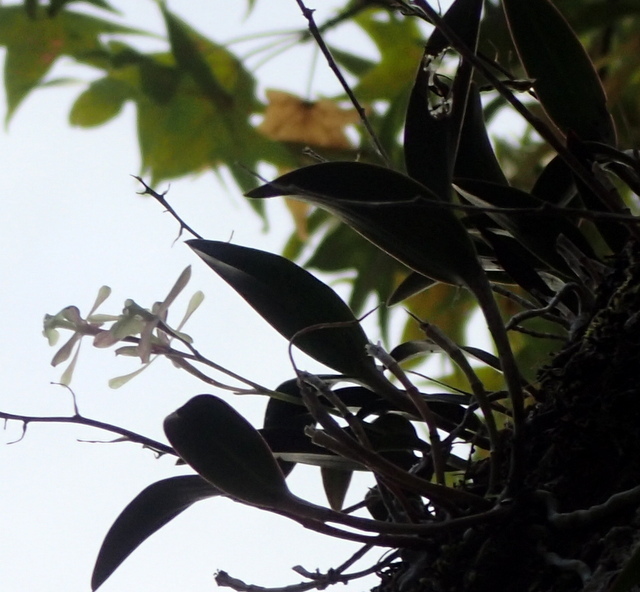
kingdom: Plantae
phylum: Tracheophyta
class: Liliopsida
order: Asparagales
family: Orchidaceae
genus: Epidendrum
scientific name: Epidendrum conopseum
